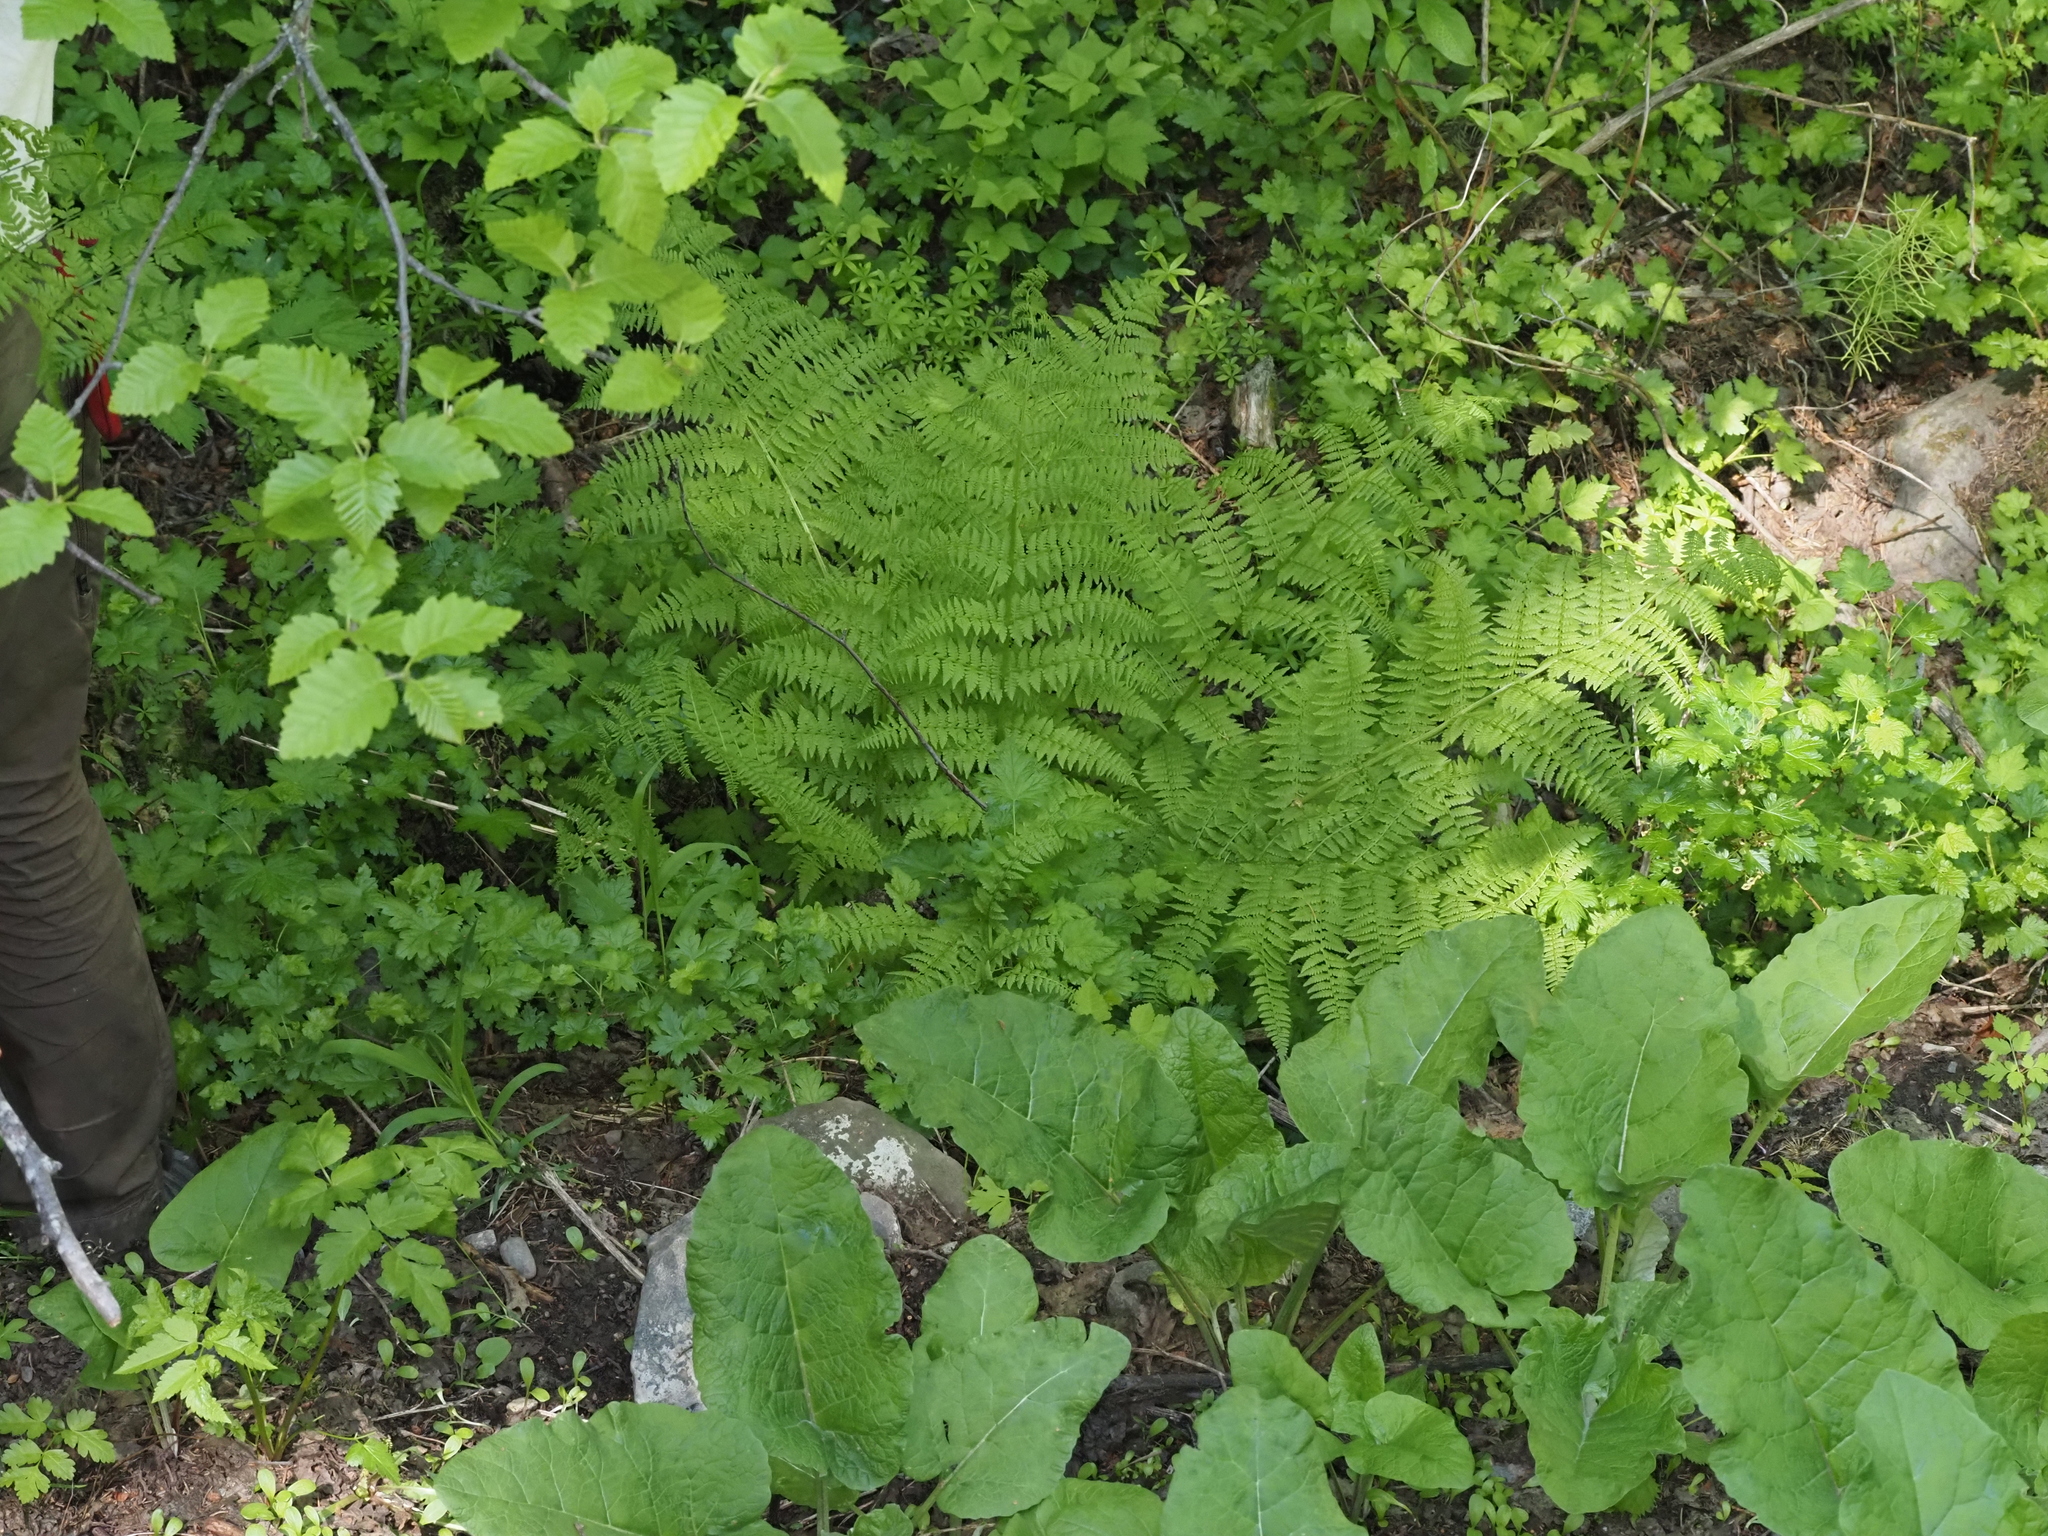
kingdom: Plantae
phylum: Tracheophyta
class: Polypodiopsida
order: Polypodiales
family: Athyriaceae
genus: Athyrium
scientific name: Athyrium filix-femina
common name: Lady fern
